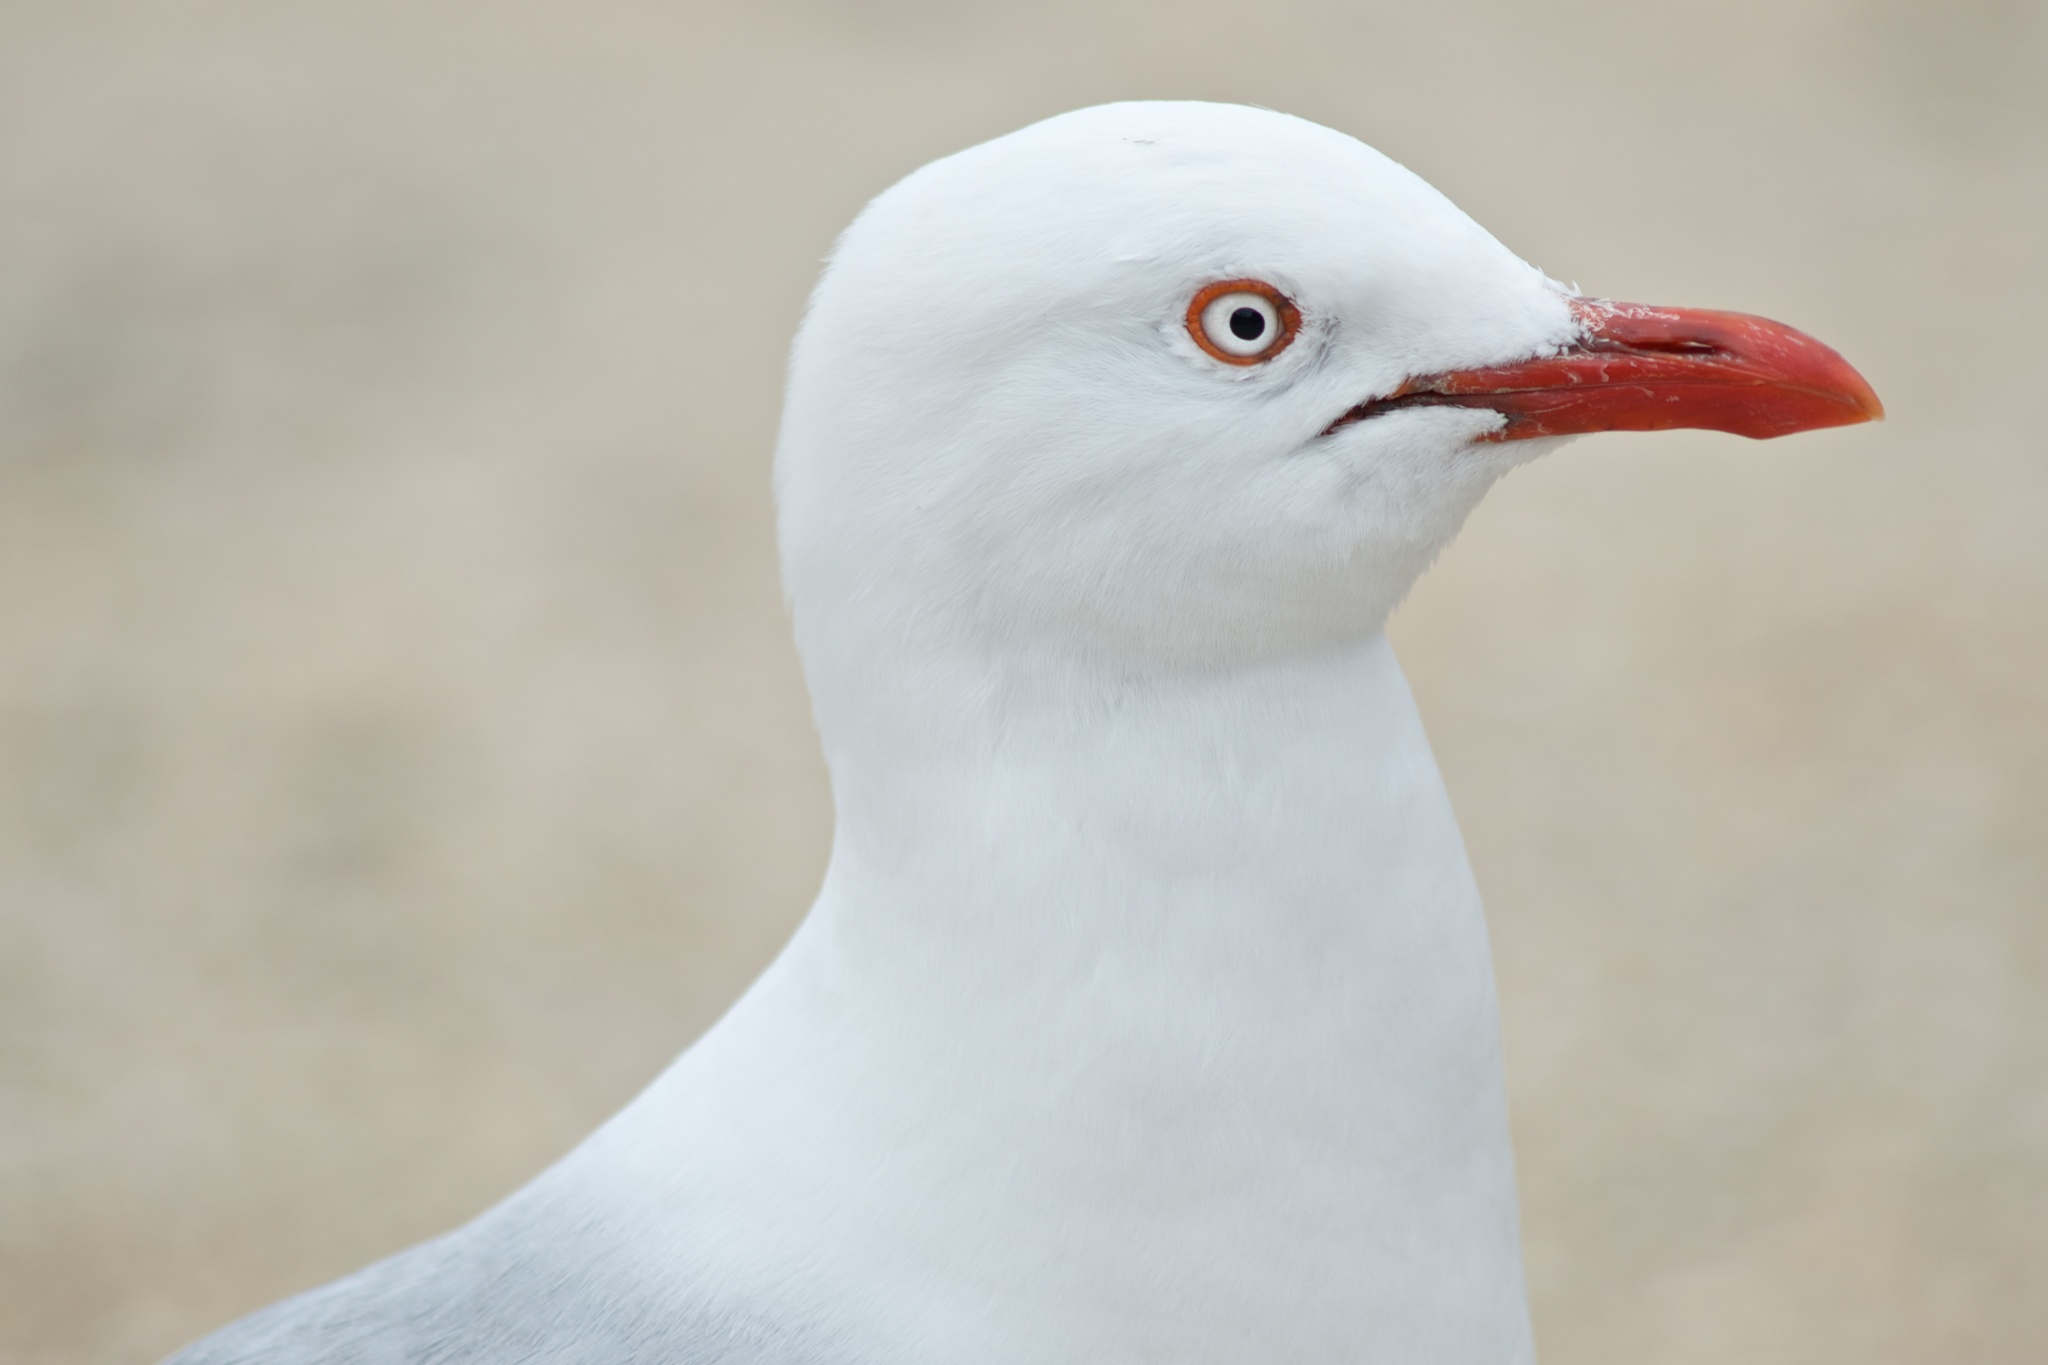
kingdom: Animalia
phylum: Chordata
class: Aves
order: Charadriiformes
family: Laridae
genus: Chroicocephalus
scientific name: Chroicocephalus novaehollandiae
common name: Silver gull
